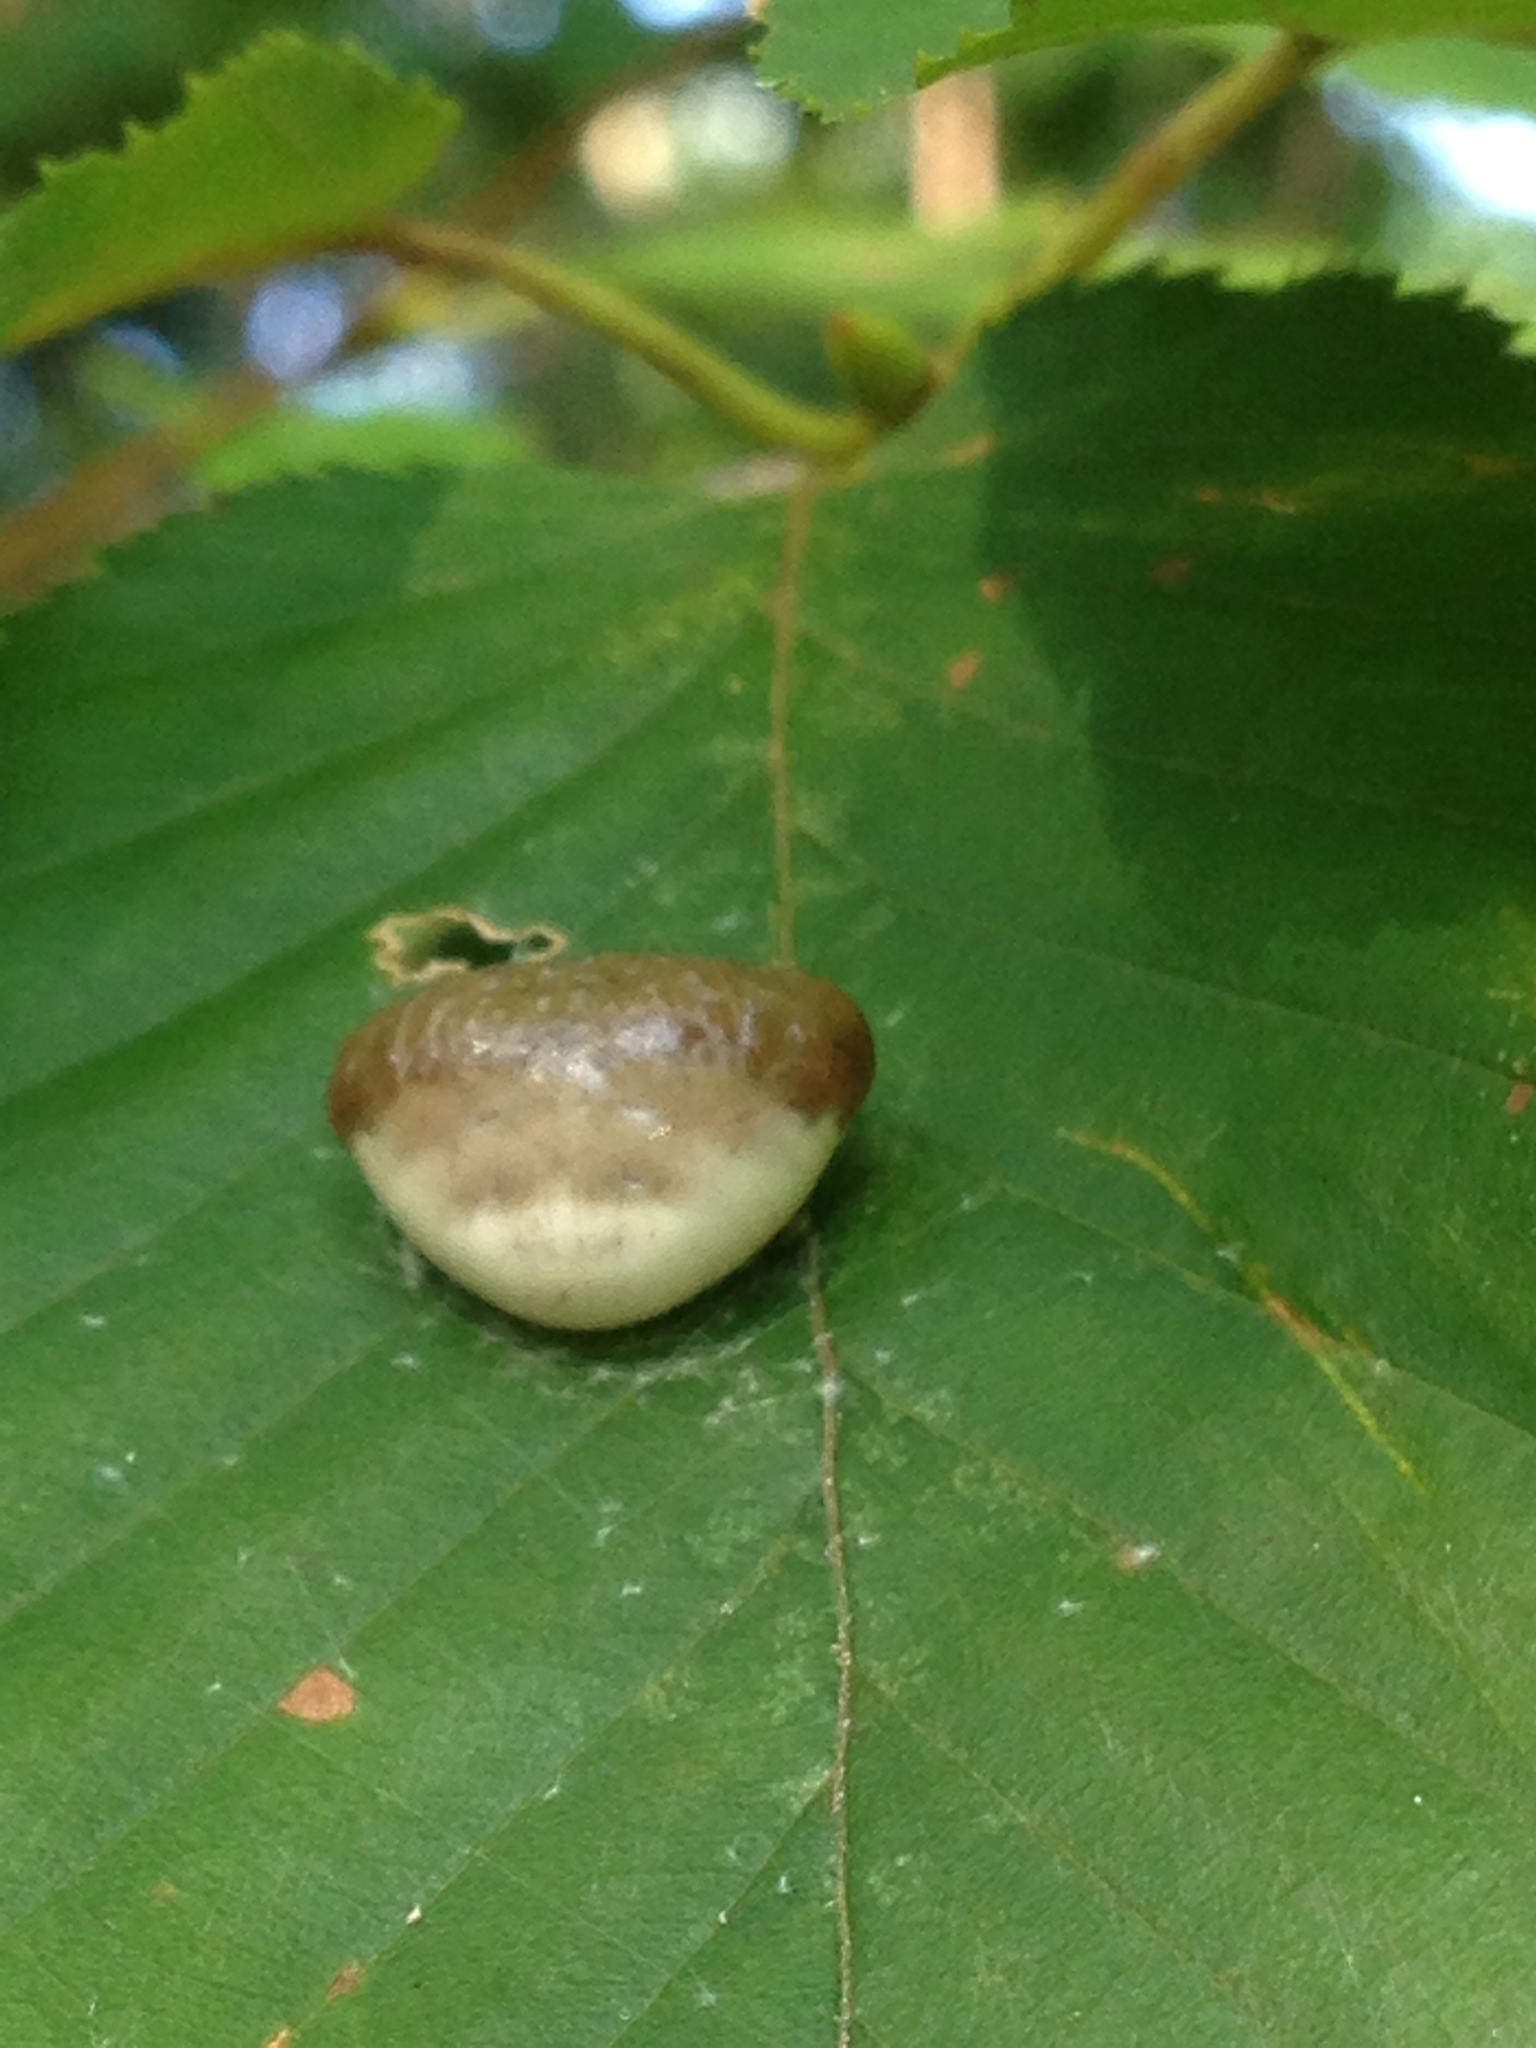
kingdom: Animalia
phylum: Arthropoda
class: Arachnida
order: Araneae
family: Araneidae
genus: Mastophora
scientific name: Mastophora phrynosoma
